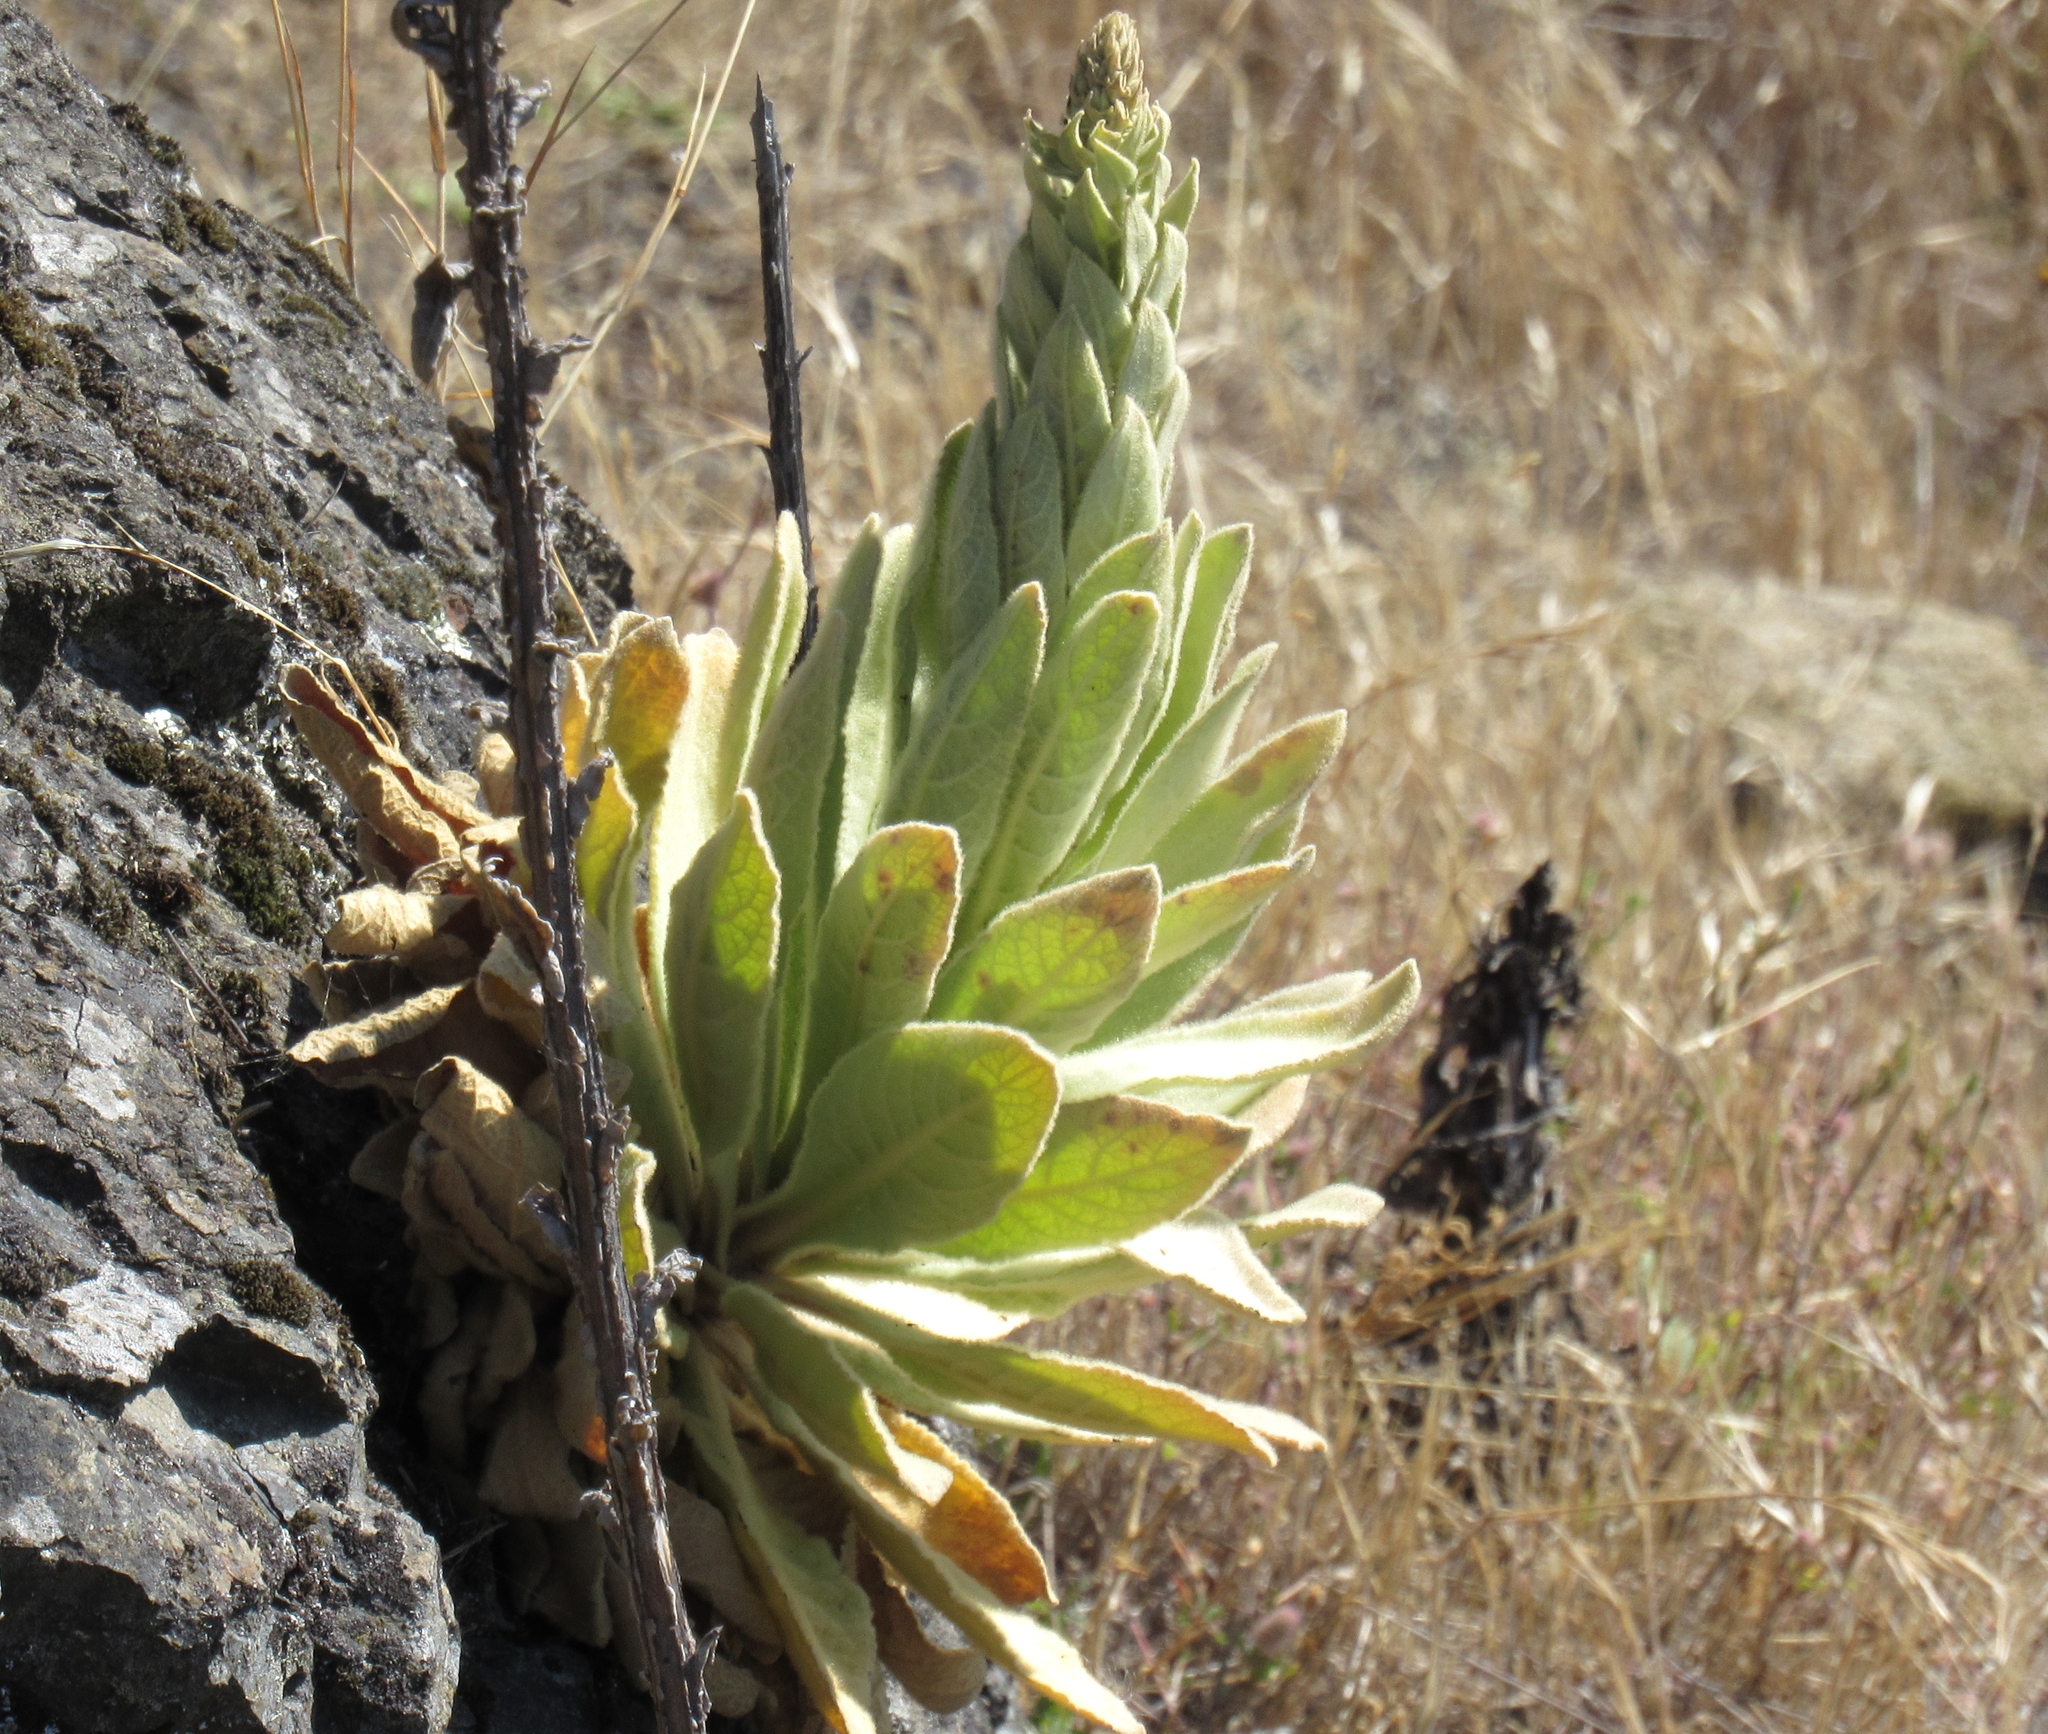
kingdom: Plantae
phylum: Tracheophyta
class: Magnoliopsida
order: Lamiales
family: Scrophulariaceae
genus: Verbascum
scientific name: Verbascum thapsus
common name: Common mullein
